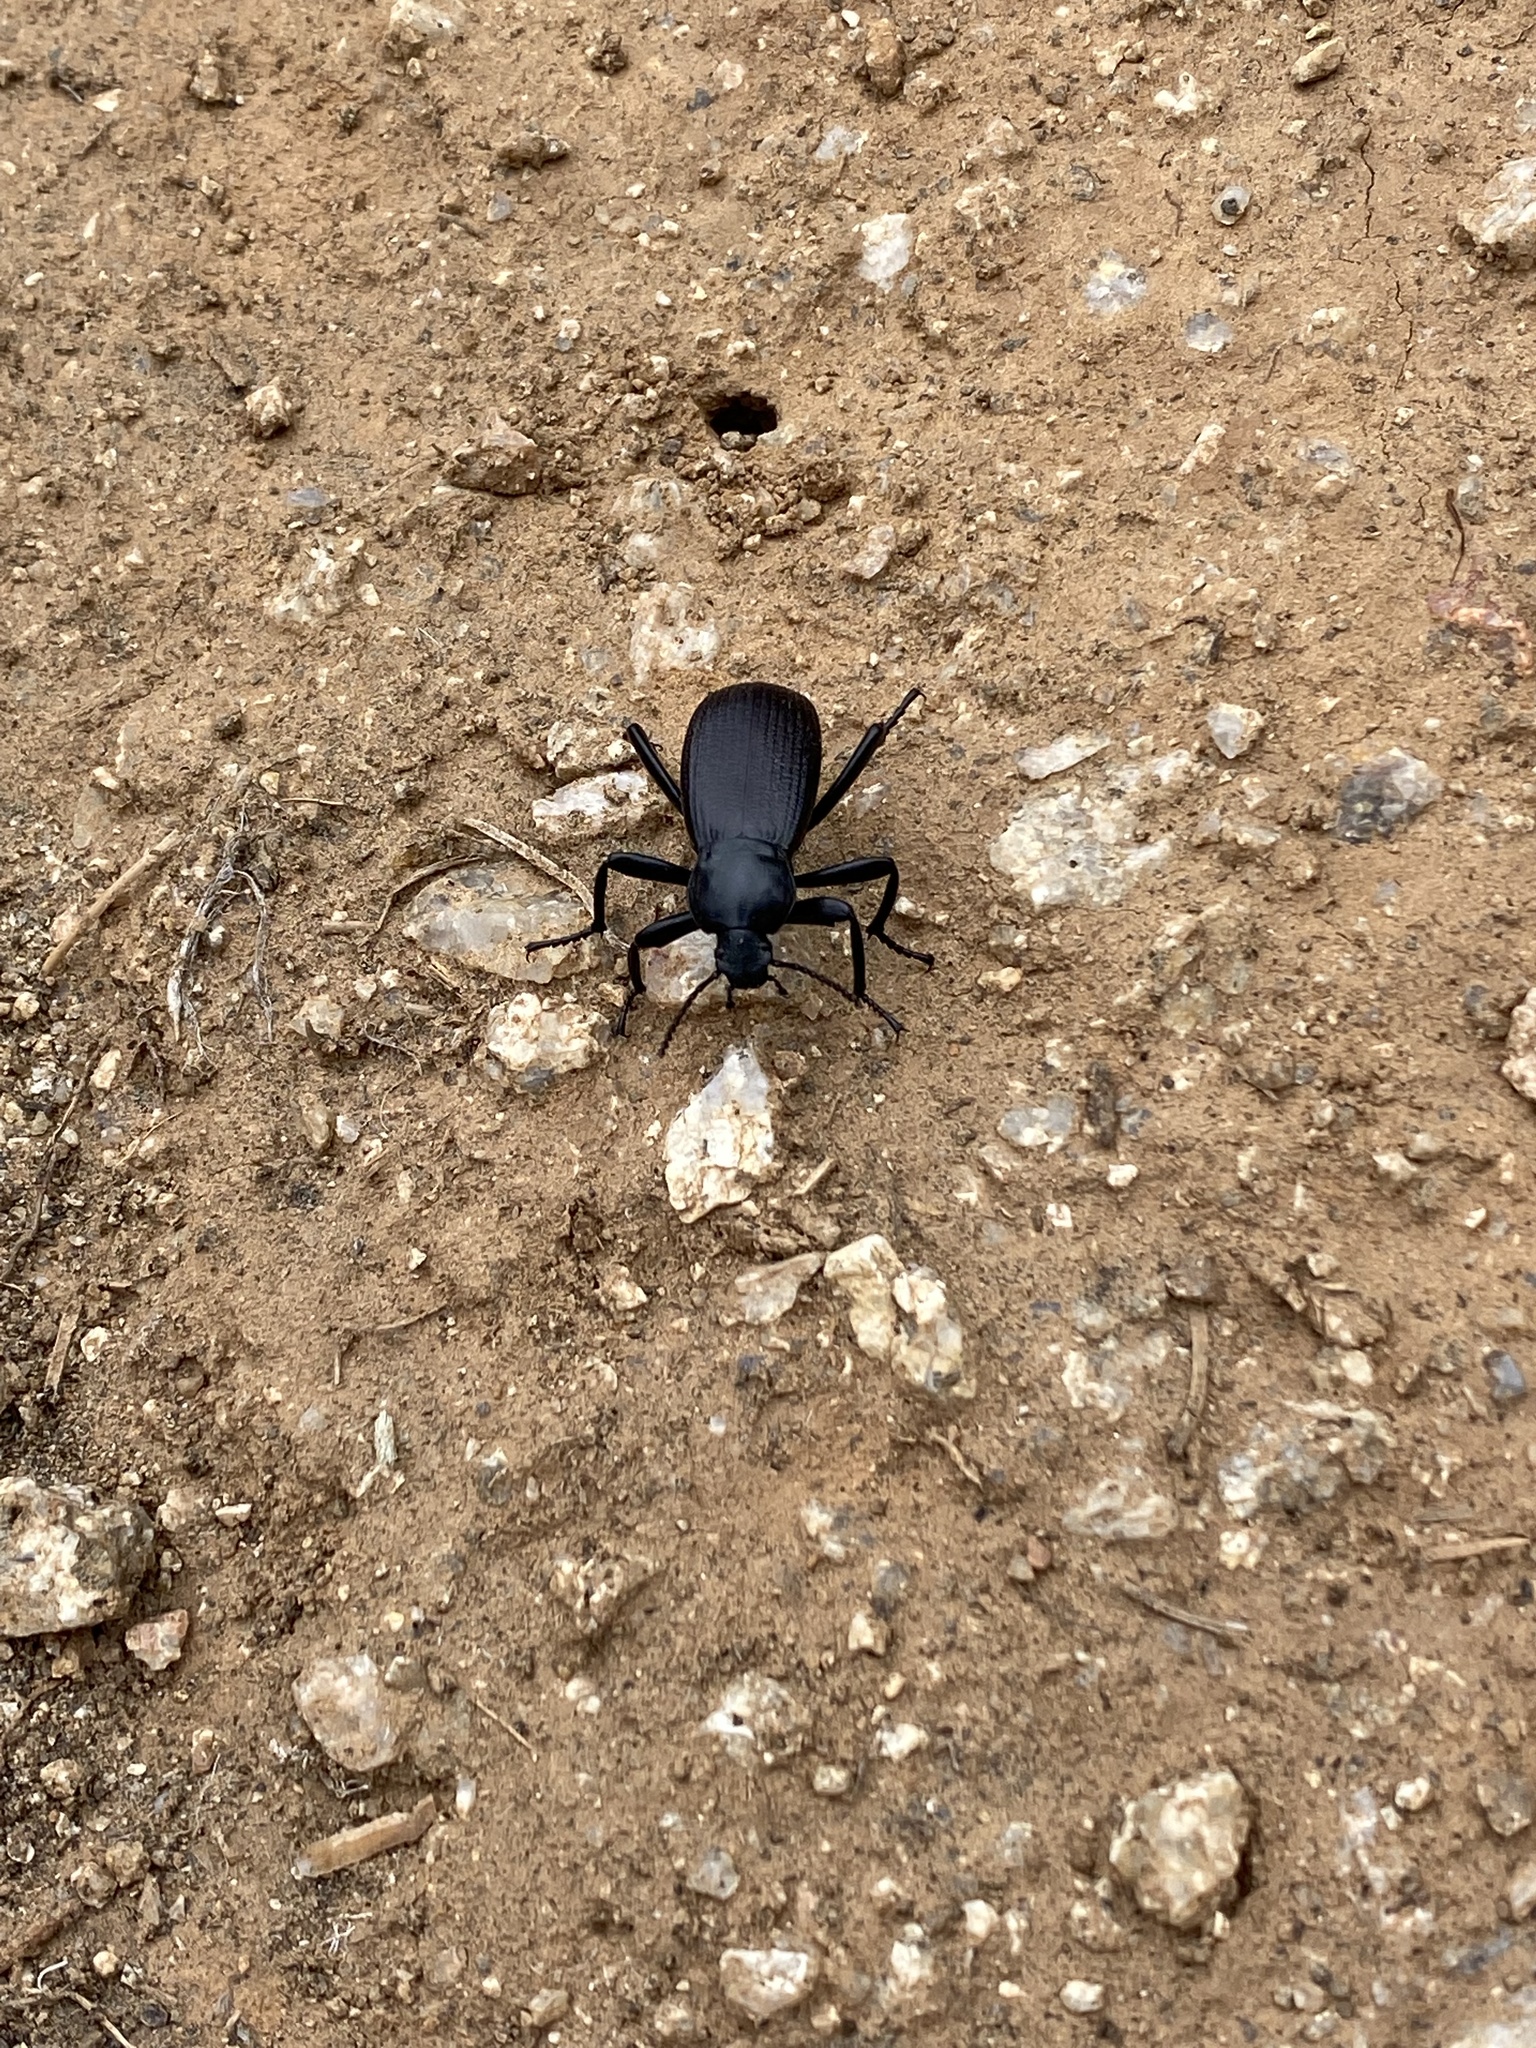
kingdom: Animalia
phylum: Arthropoda
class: Insecta
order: Coleoptera
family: Tenebrionidae
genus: Eleodes
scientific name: Eleodes obscura
